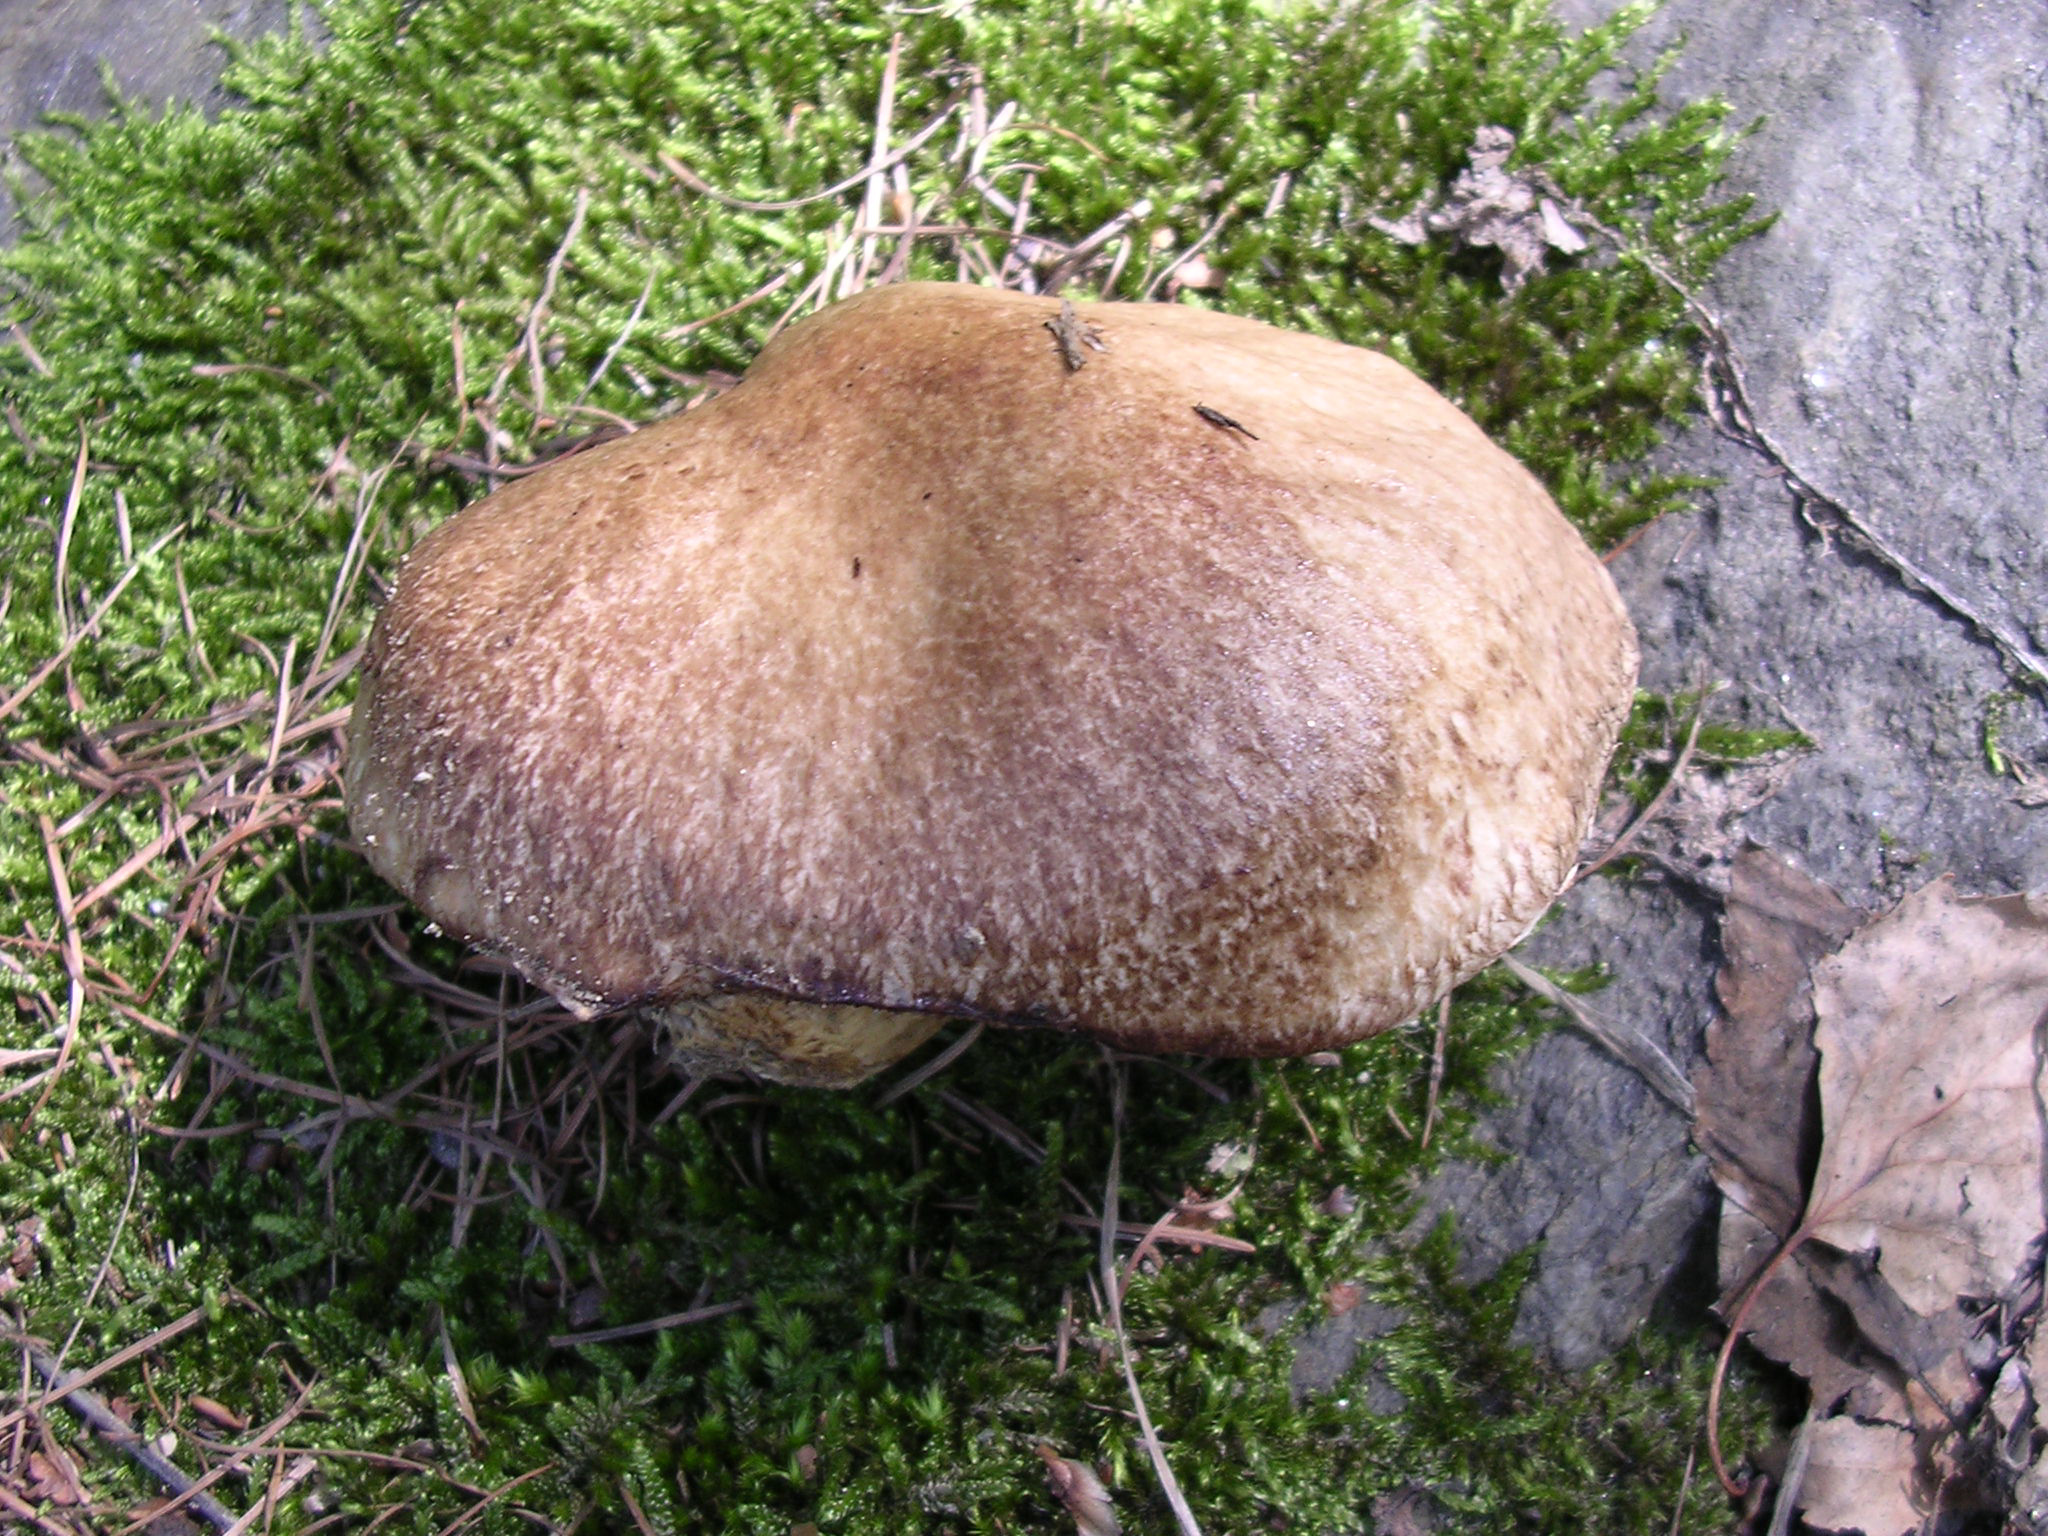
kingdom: Fungi
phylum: Basidiomycota
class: Agaricomycetes
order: Boletales
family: Suillaceae
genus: Suillus
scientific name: Suillus viscidus
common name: Sticky bolete
